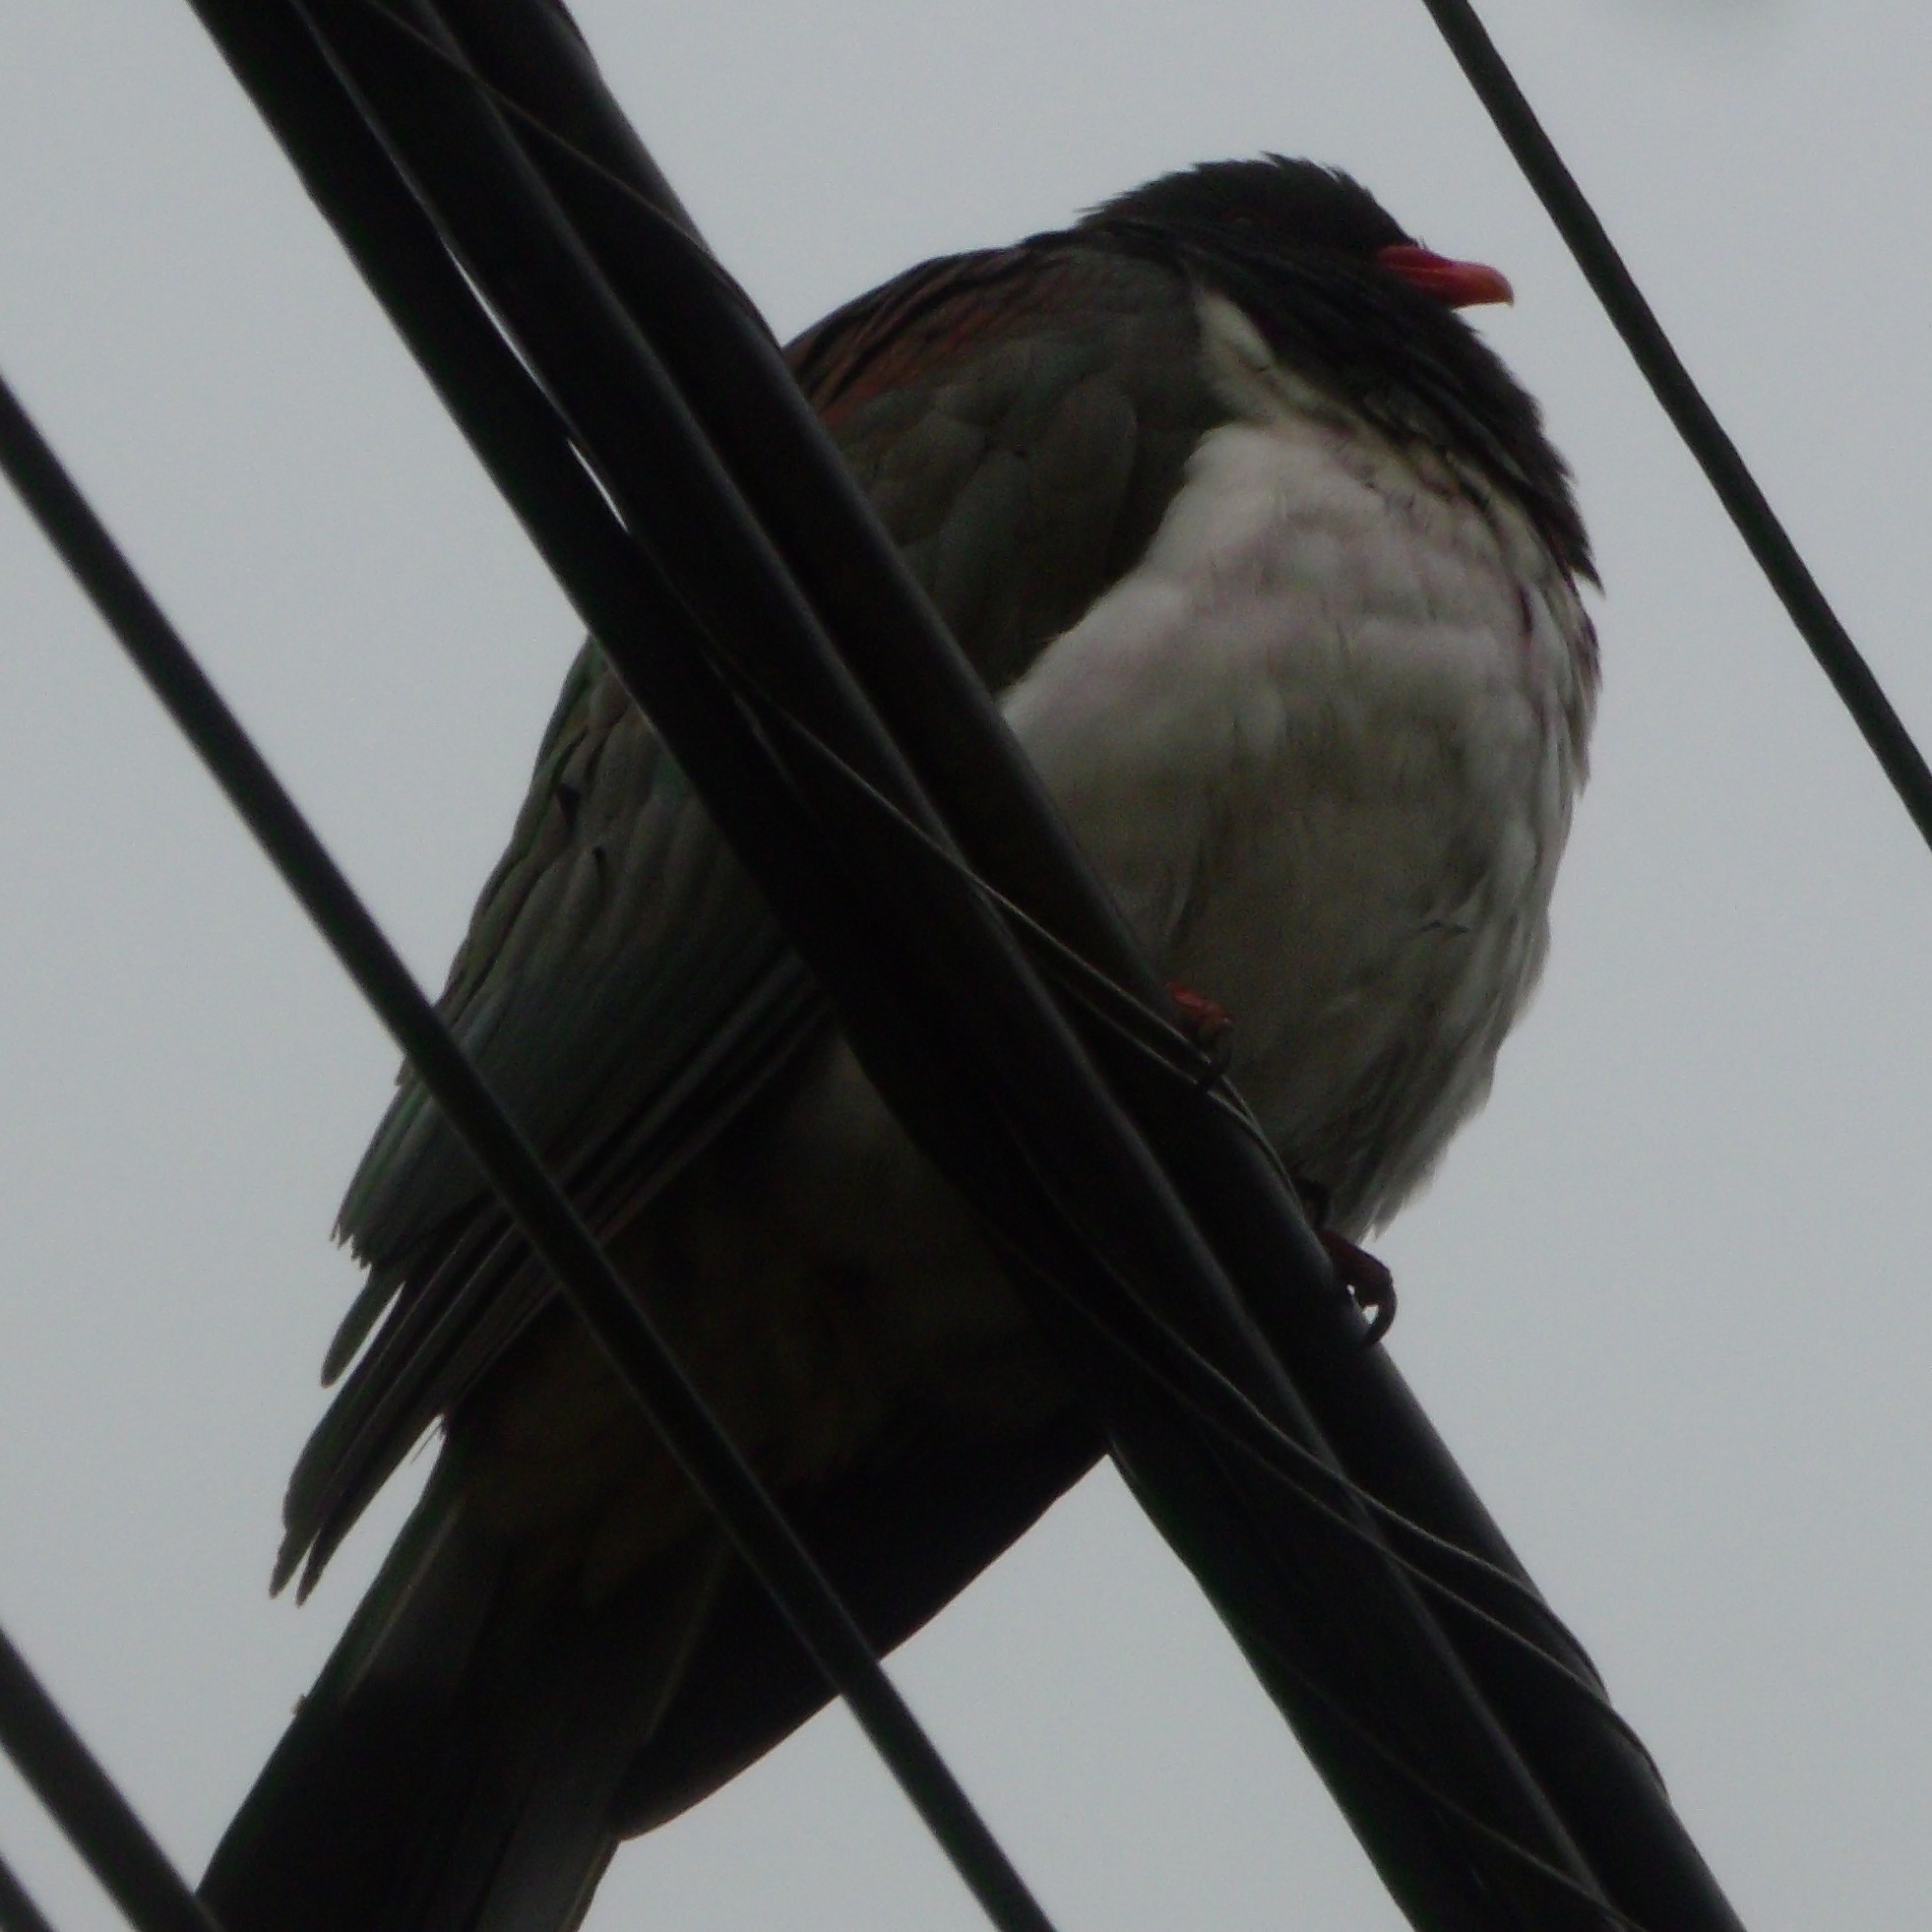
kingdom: Animalia
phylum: Chordata
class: Aves
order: Columbiformes
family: Columbidae
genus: Hemiphaga
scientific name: Hemiphaga novaeseelandiae
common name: New zealand pigeon
